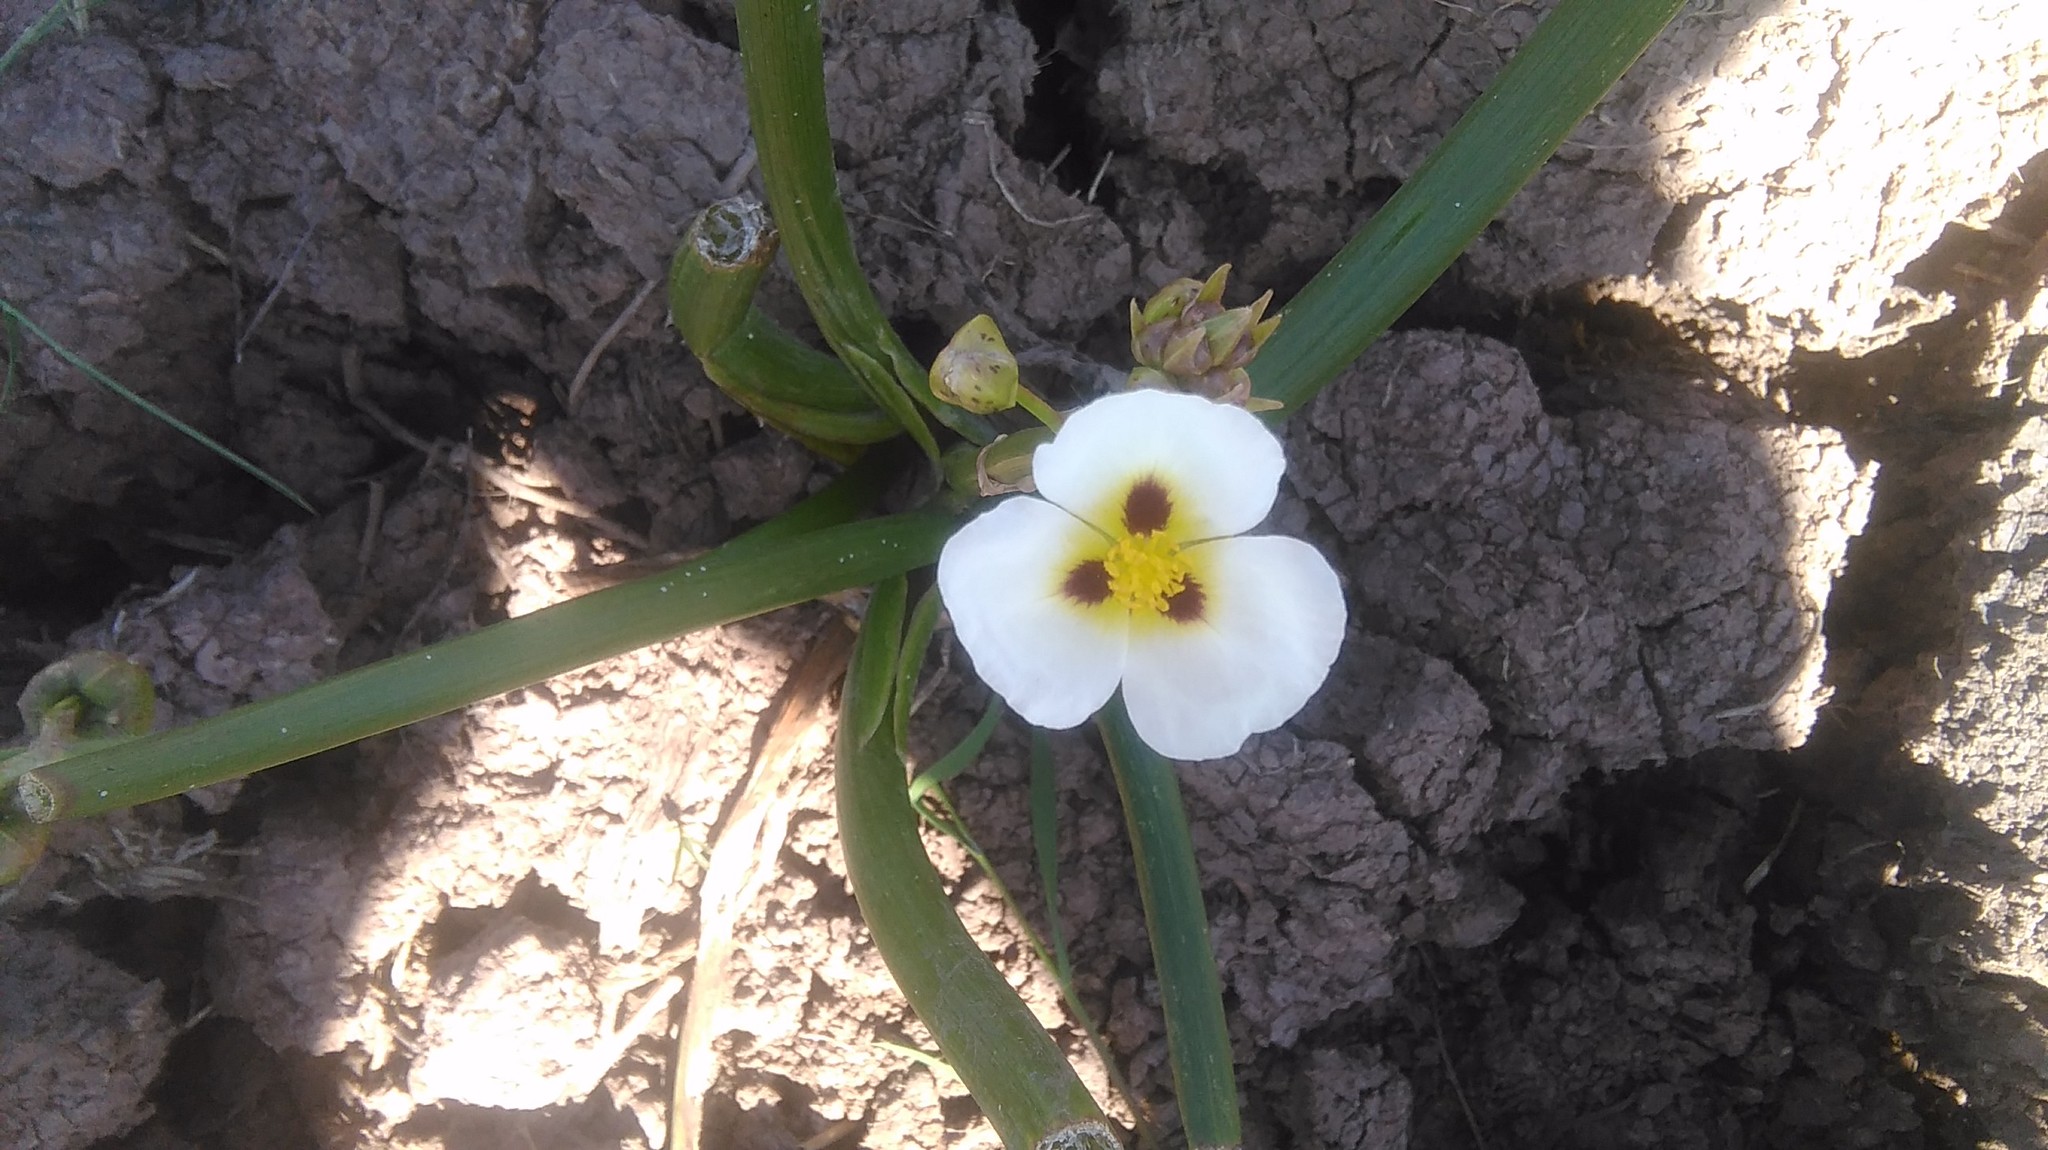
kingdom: Plantae
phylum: Tracheophyta
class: Liliopsida
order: Alismatales
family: Alismataceae
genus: Sagittaria
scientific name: Sagittaria montevidensis
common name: Giant arrowhead
